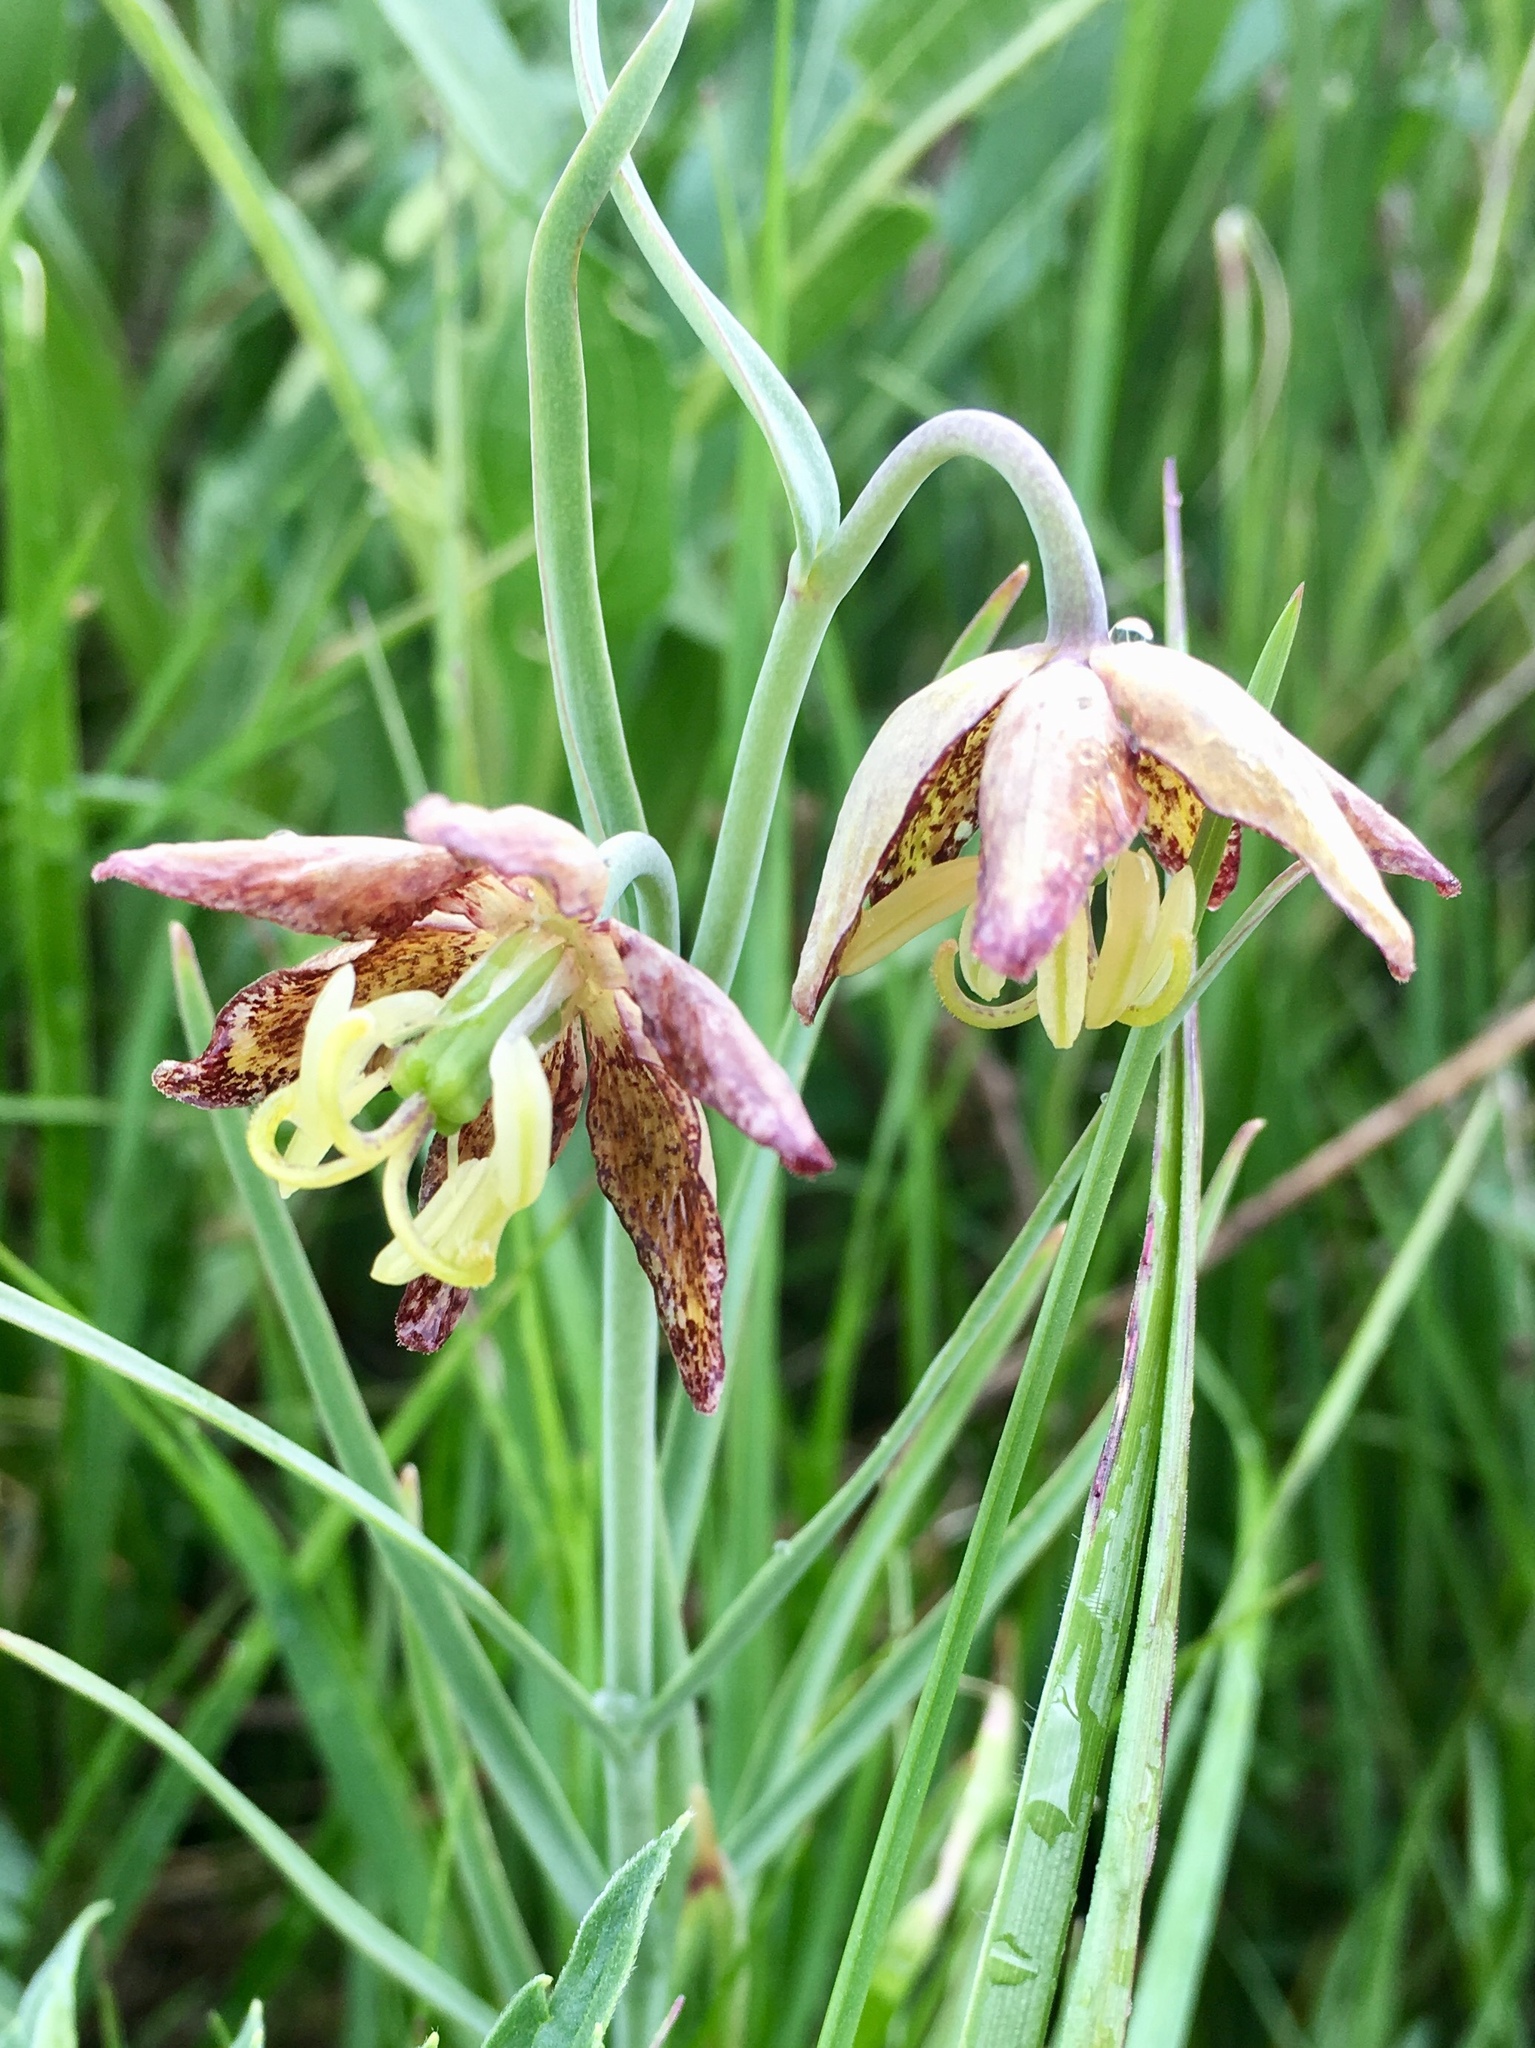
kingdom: Plantae
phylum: Tracheophyta
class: Liliopsida
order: Liliales
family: Liliaceae
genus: Fritillaria
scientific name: Fritillaria atropurpurea
